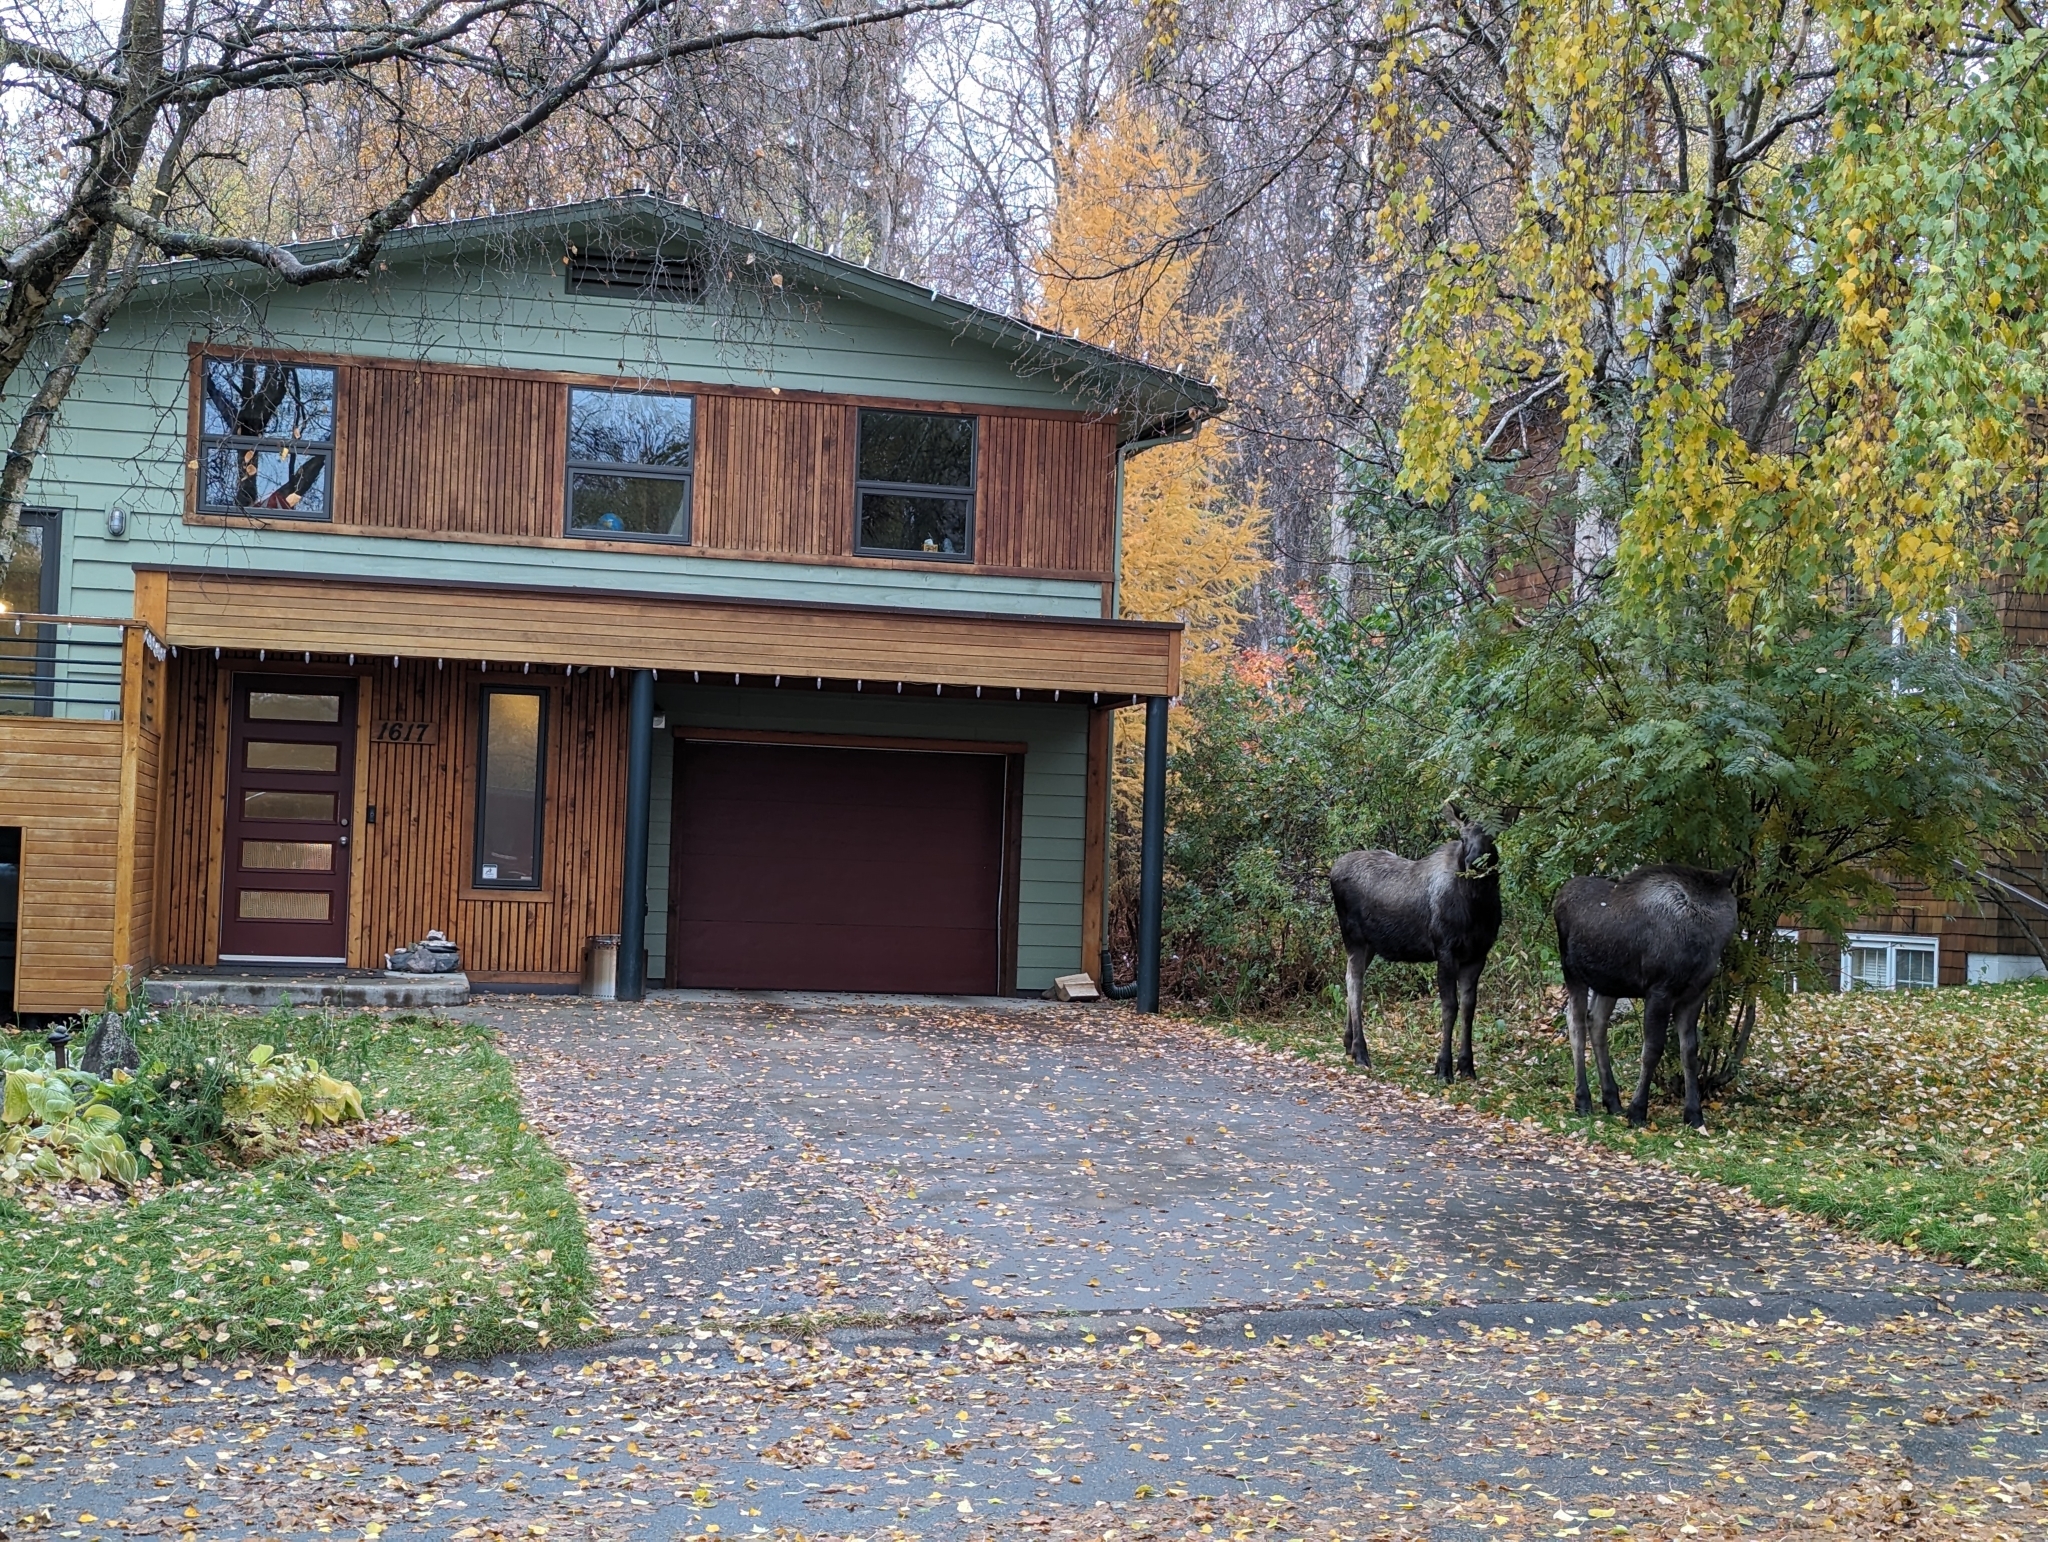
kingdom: Animalia
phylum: Chordata
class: Mammalia
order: Artiodactyla
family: Cervidae
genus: Alces
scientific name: Alces alces
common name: Moose
